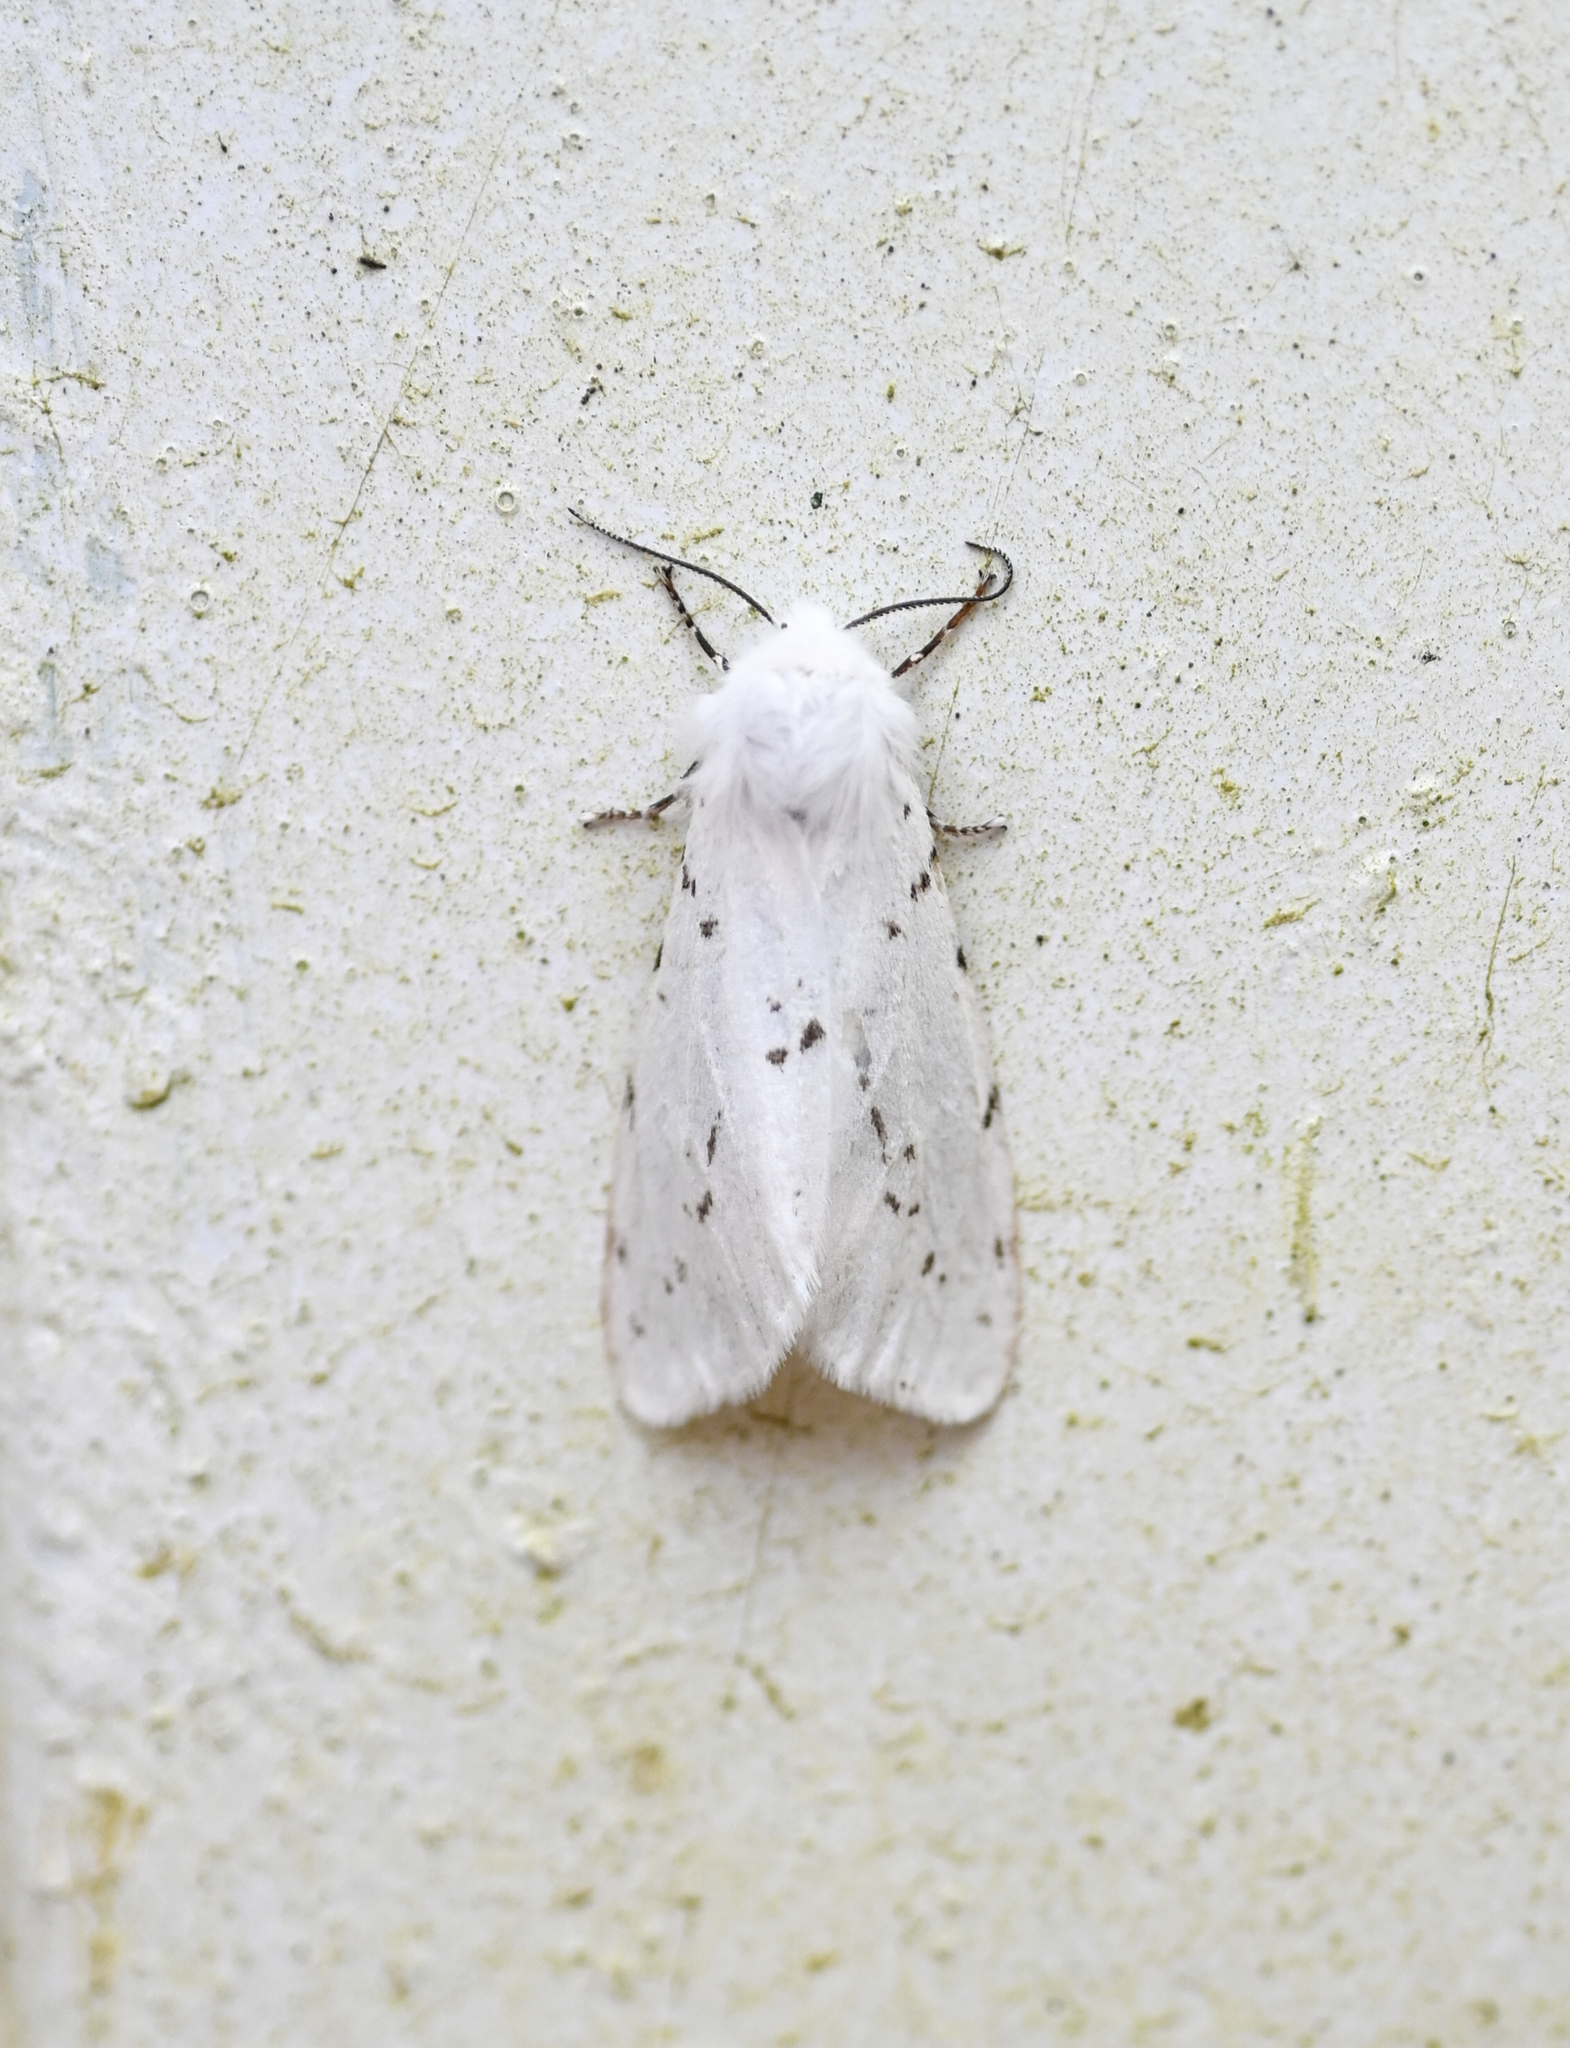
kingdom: Animalia
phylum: Arthropoda
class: Insecta
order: Lepidoptera
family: Erebidae
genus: Hyphantria
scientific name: Hyphantria cunea
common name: American white moth
